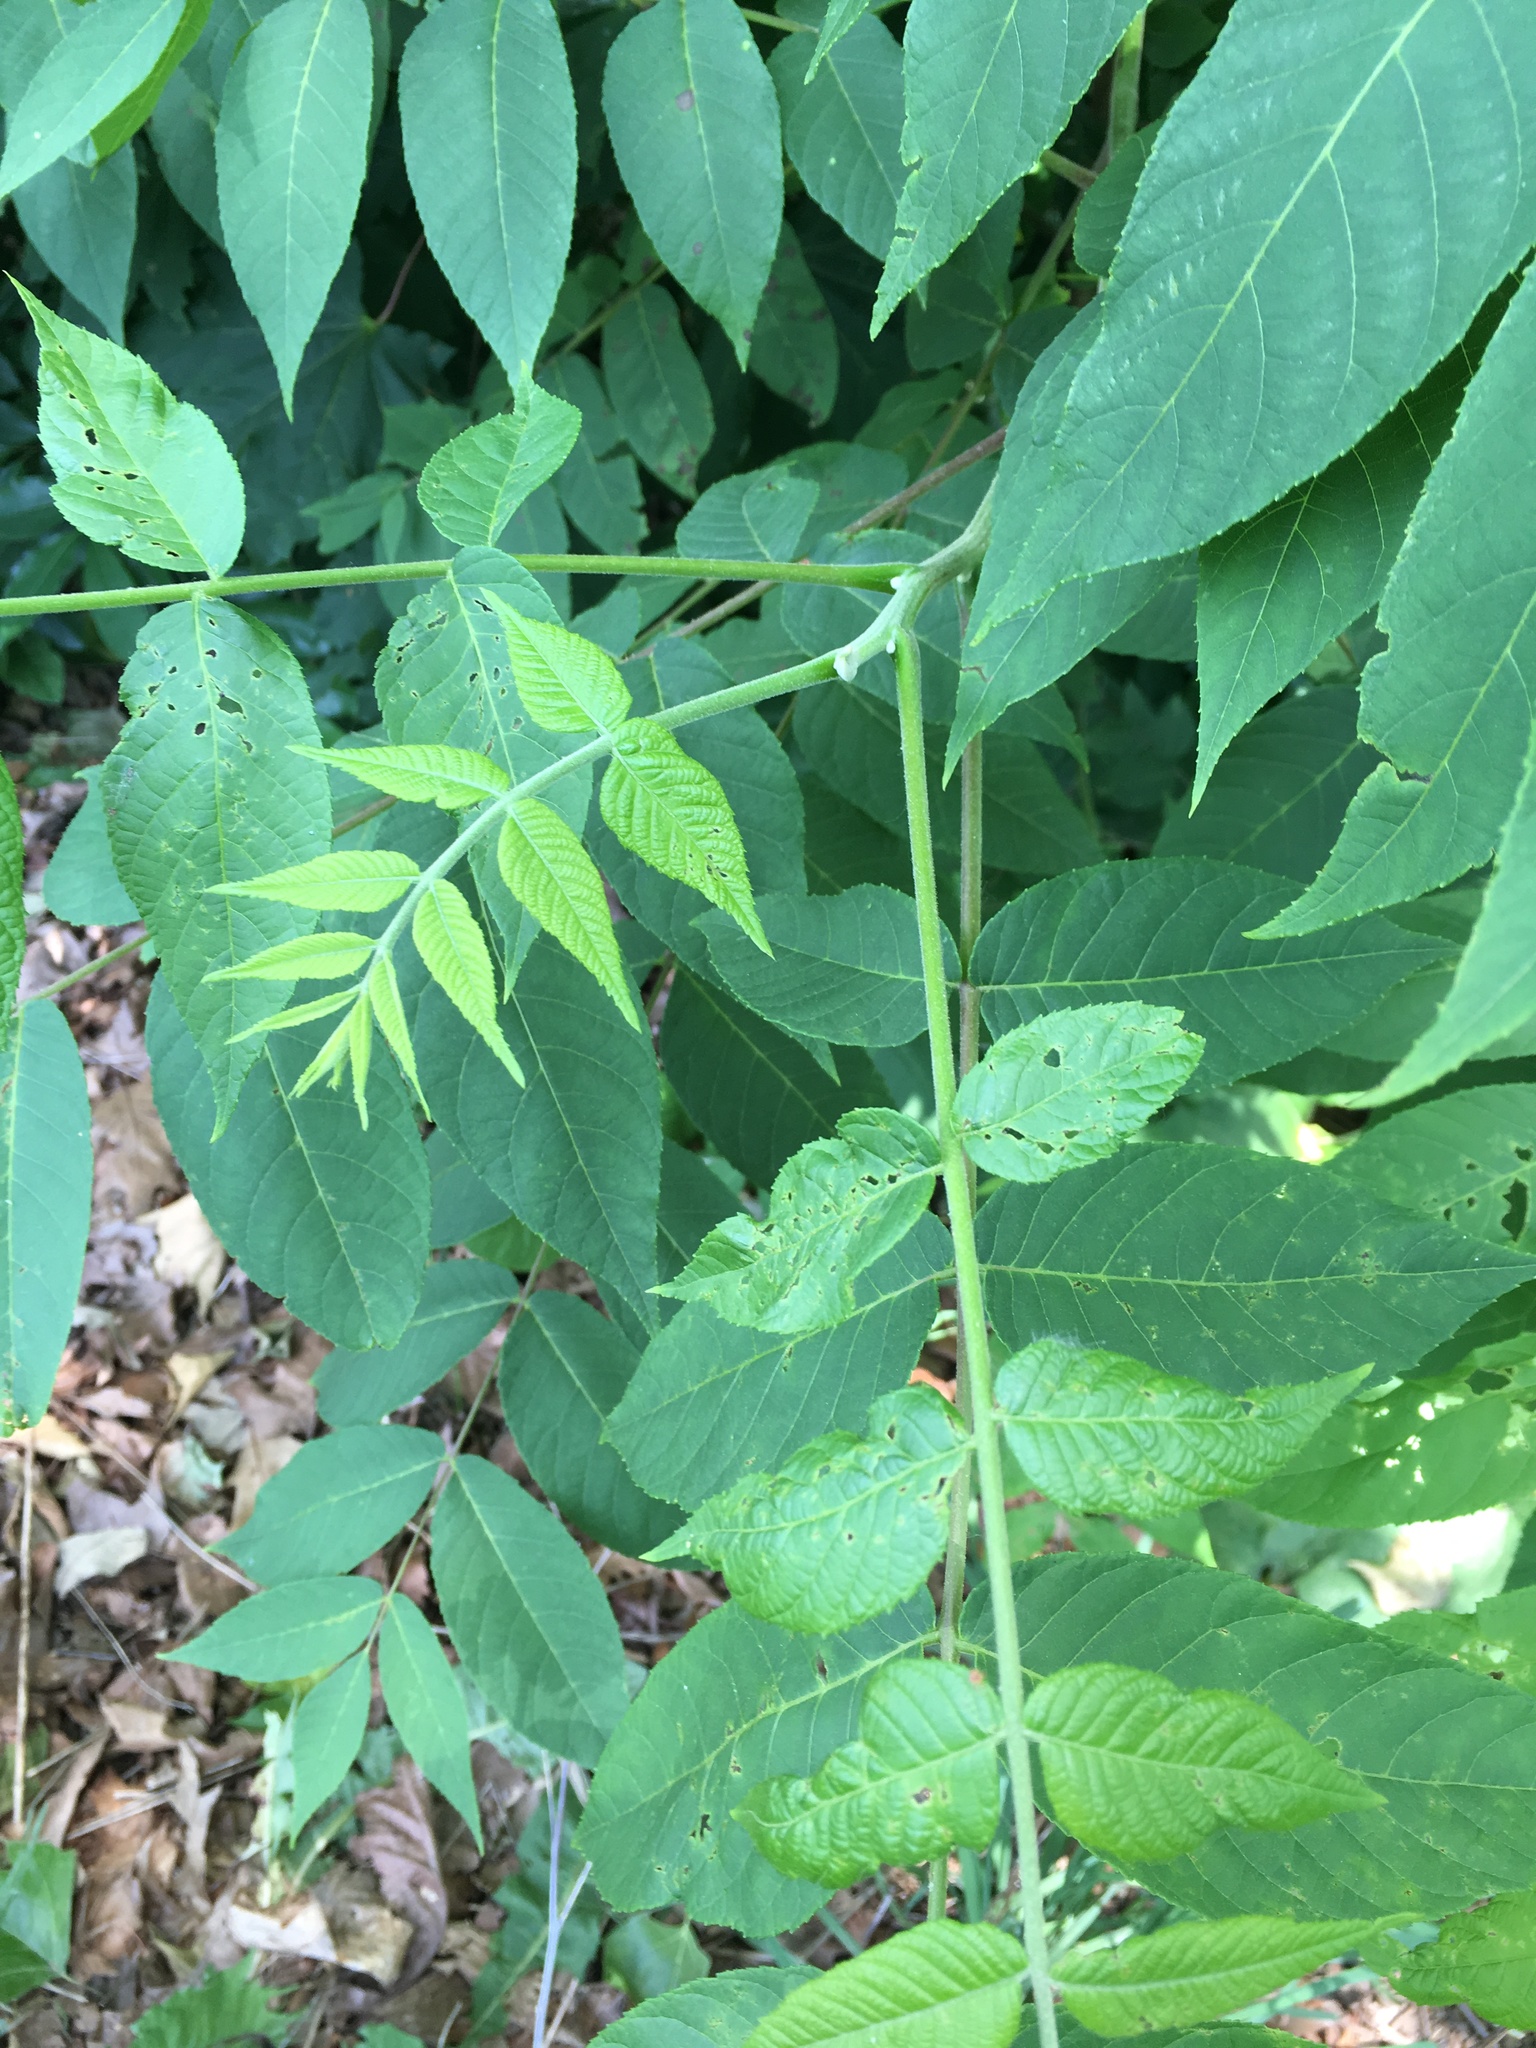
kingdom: Plantae
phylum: Tracheophyta
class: Magnoliopsida
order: Fagales
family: Juglandaceae
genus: Juglans
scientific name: Juglans nigra
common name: Black walnut
